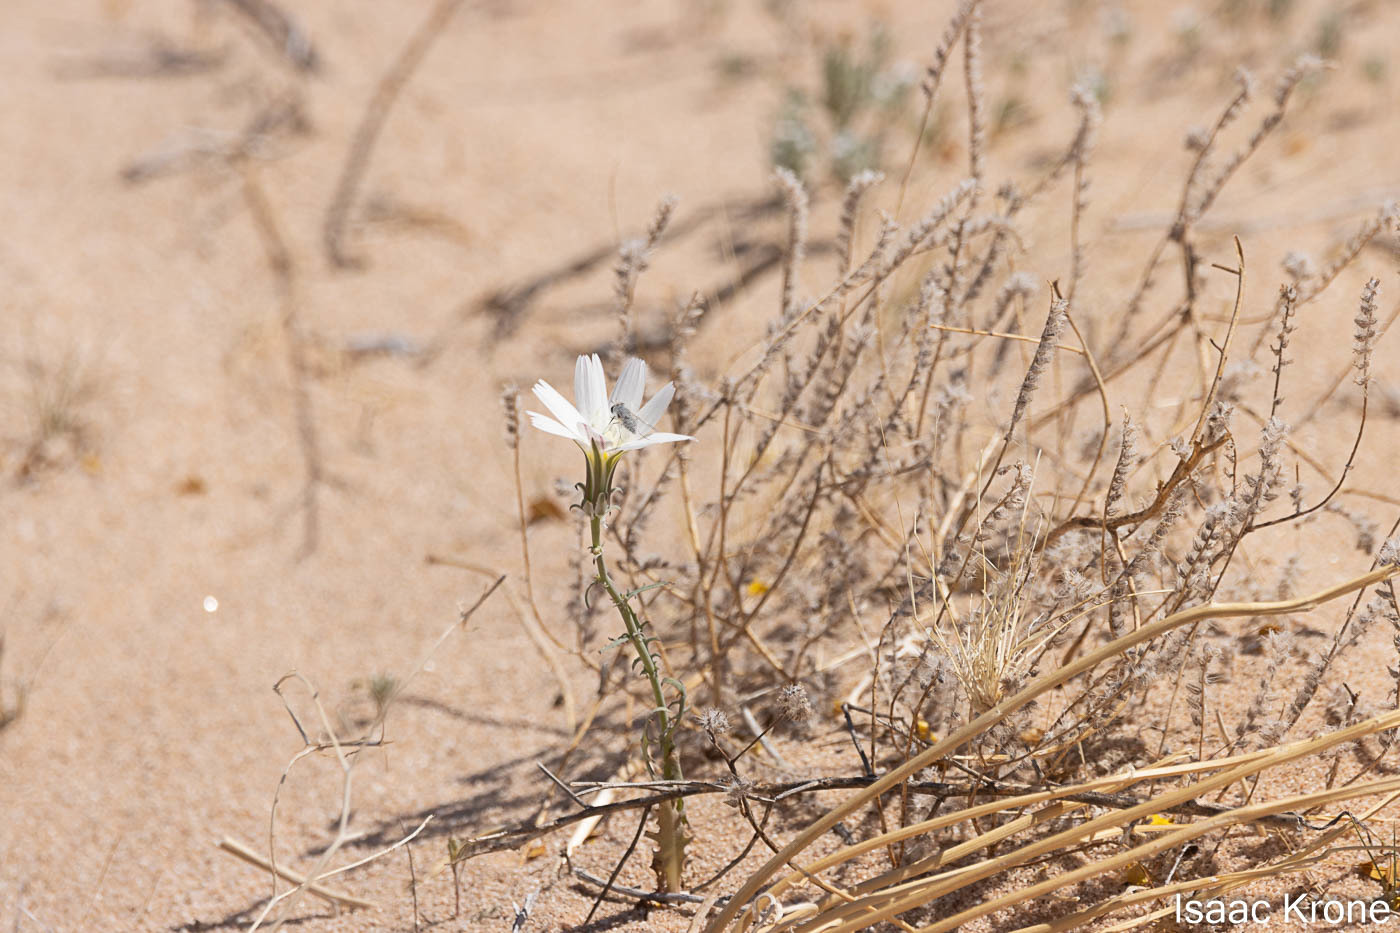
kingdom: Plantae
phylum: Tracheophyta
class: Magnoliopsida
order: Asterales
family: Asteraceae
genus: Rafinesquia
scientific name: Rafinesquia neomexicana
